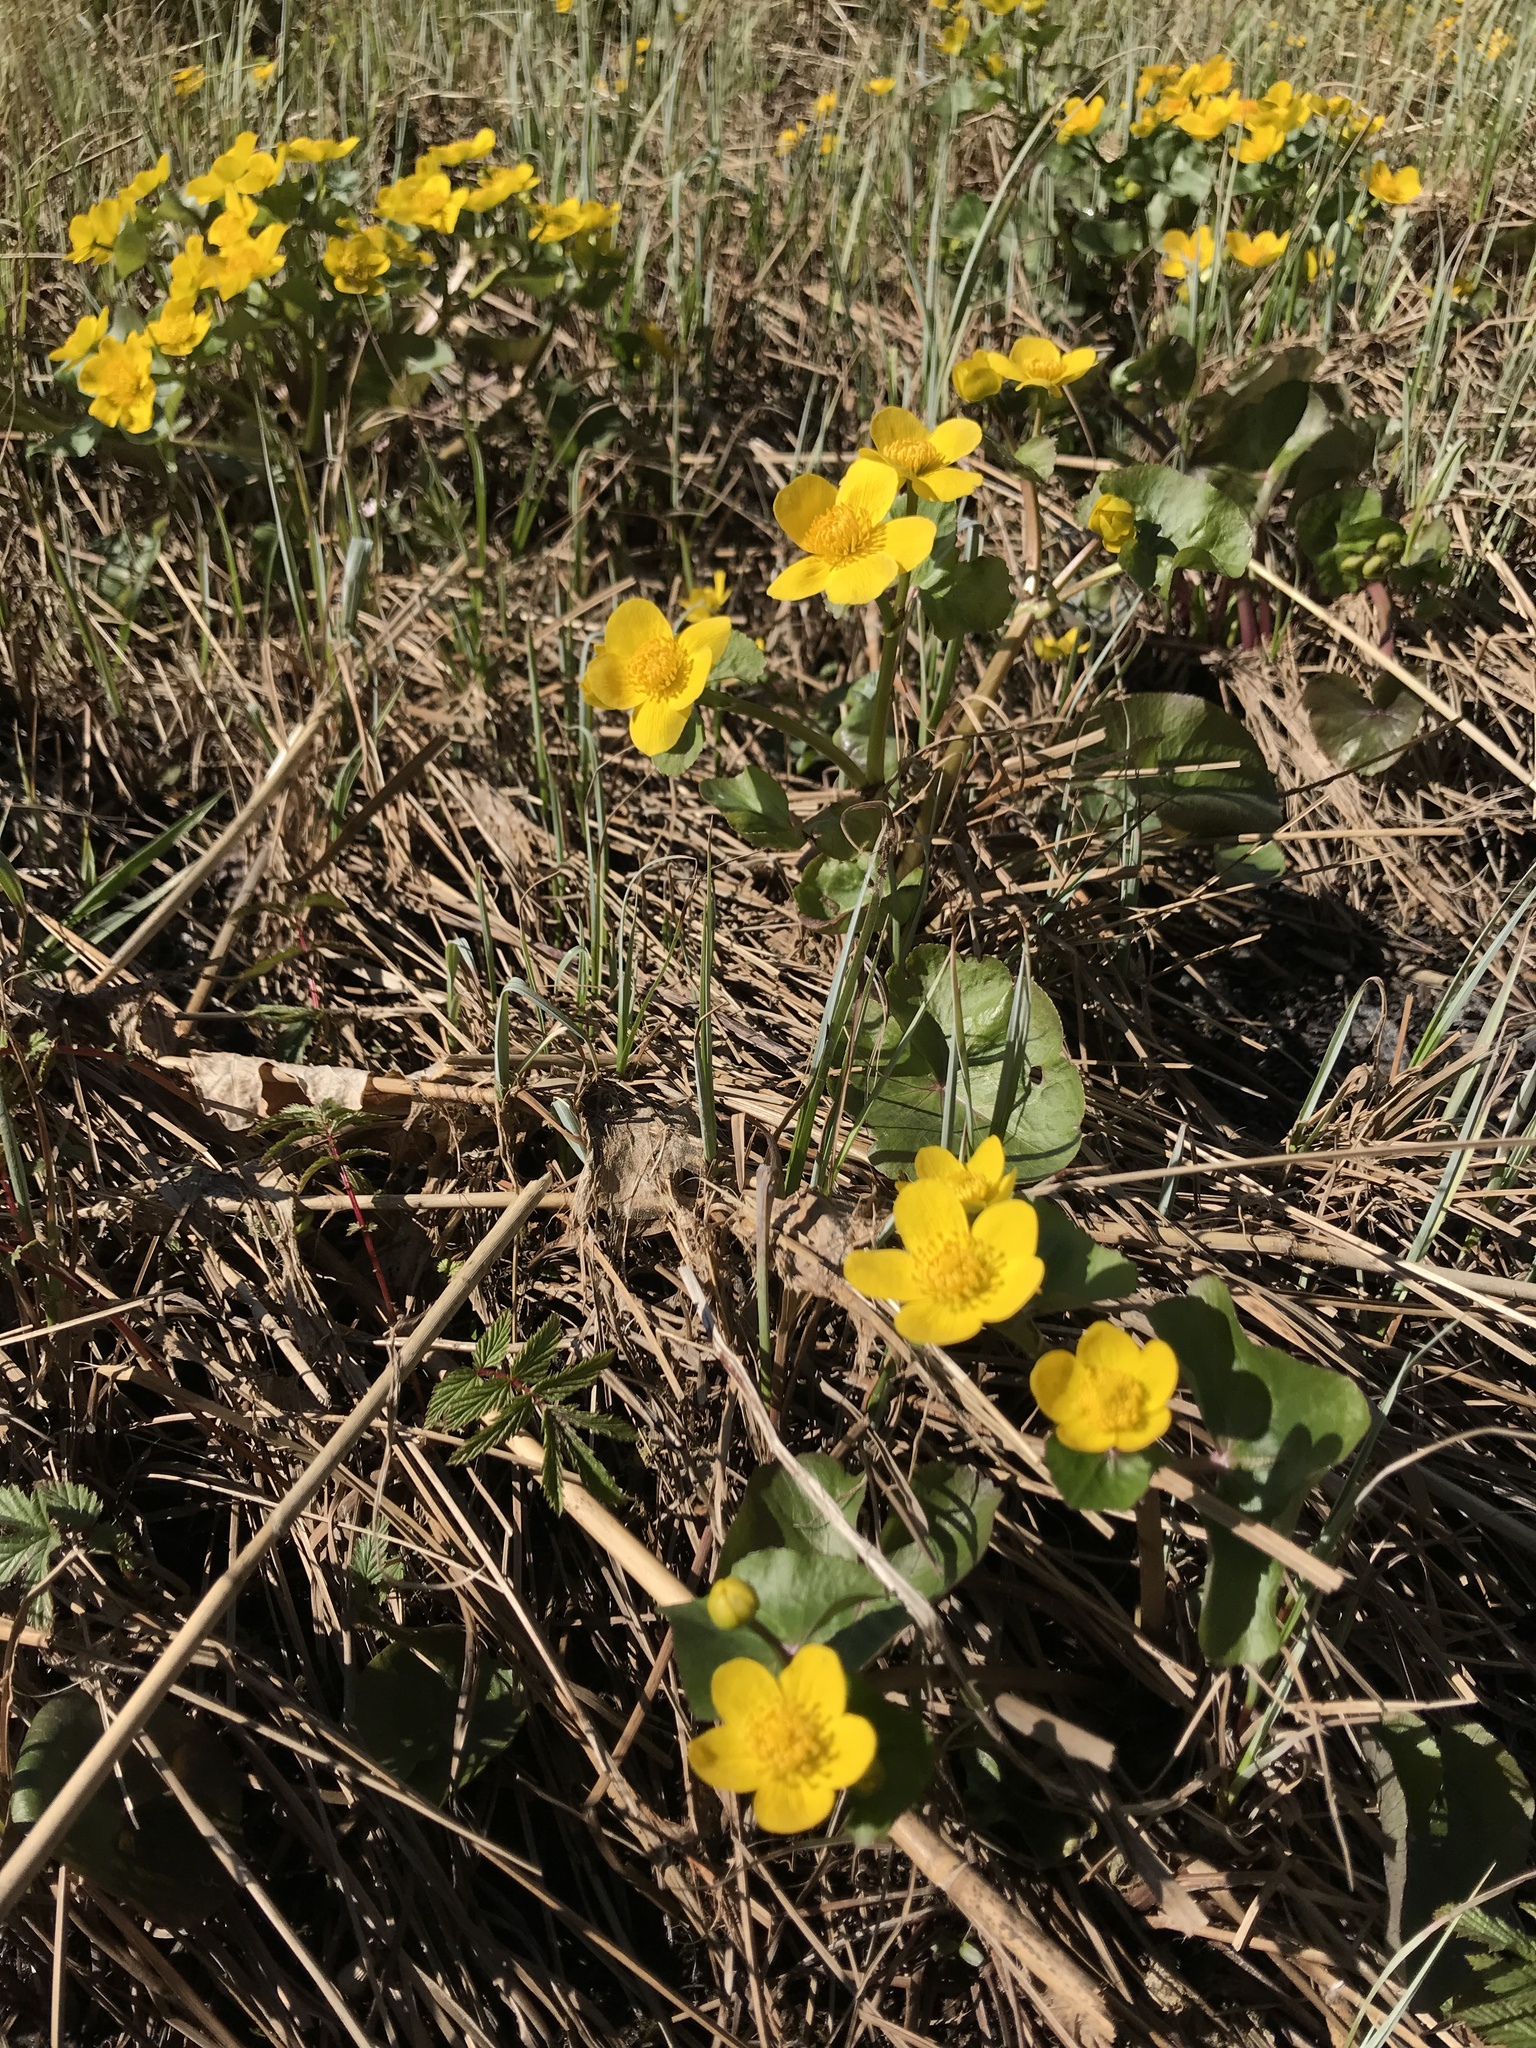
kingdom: Plantae
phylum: Tracheophyta
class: Magnoliopsida
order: Ranunculales
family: Ranunculaceae
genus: Caltha
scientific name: Caltha palustris
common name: Marsh marigold
